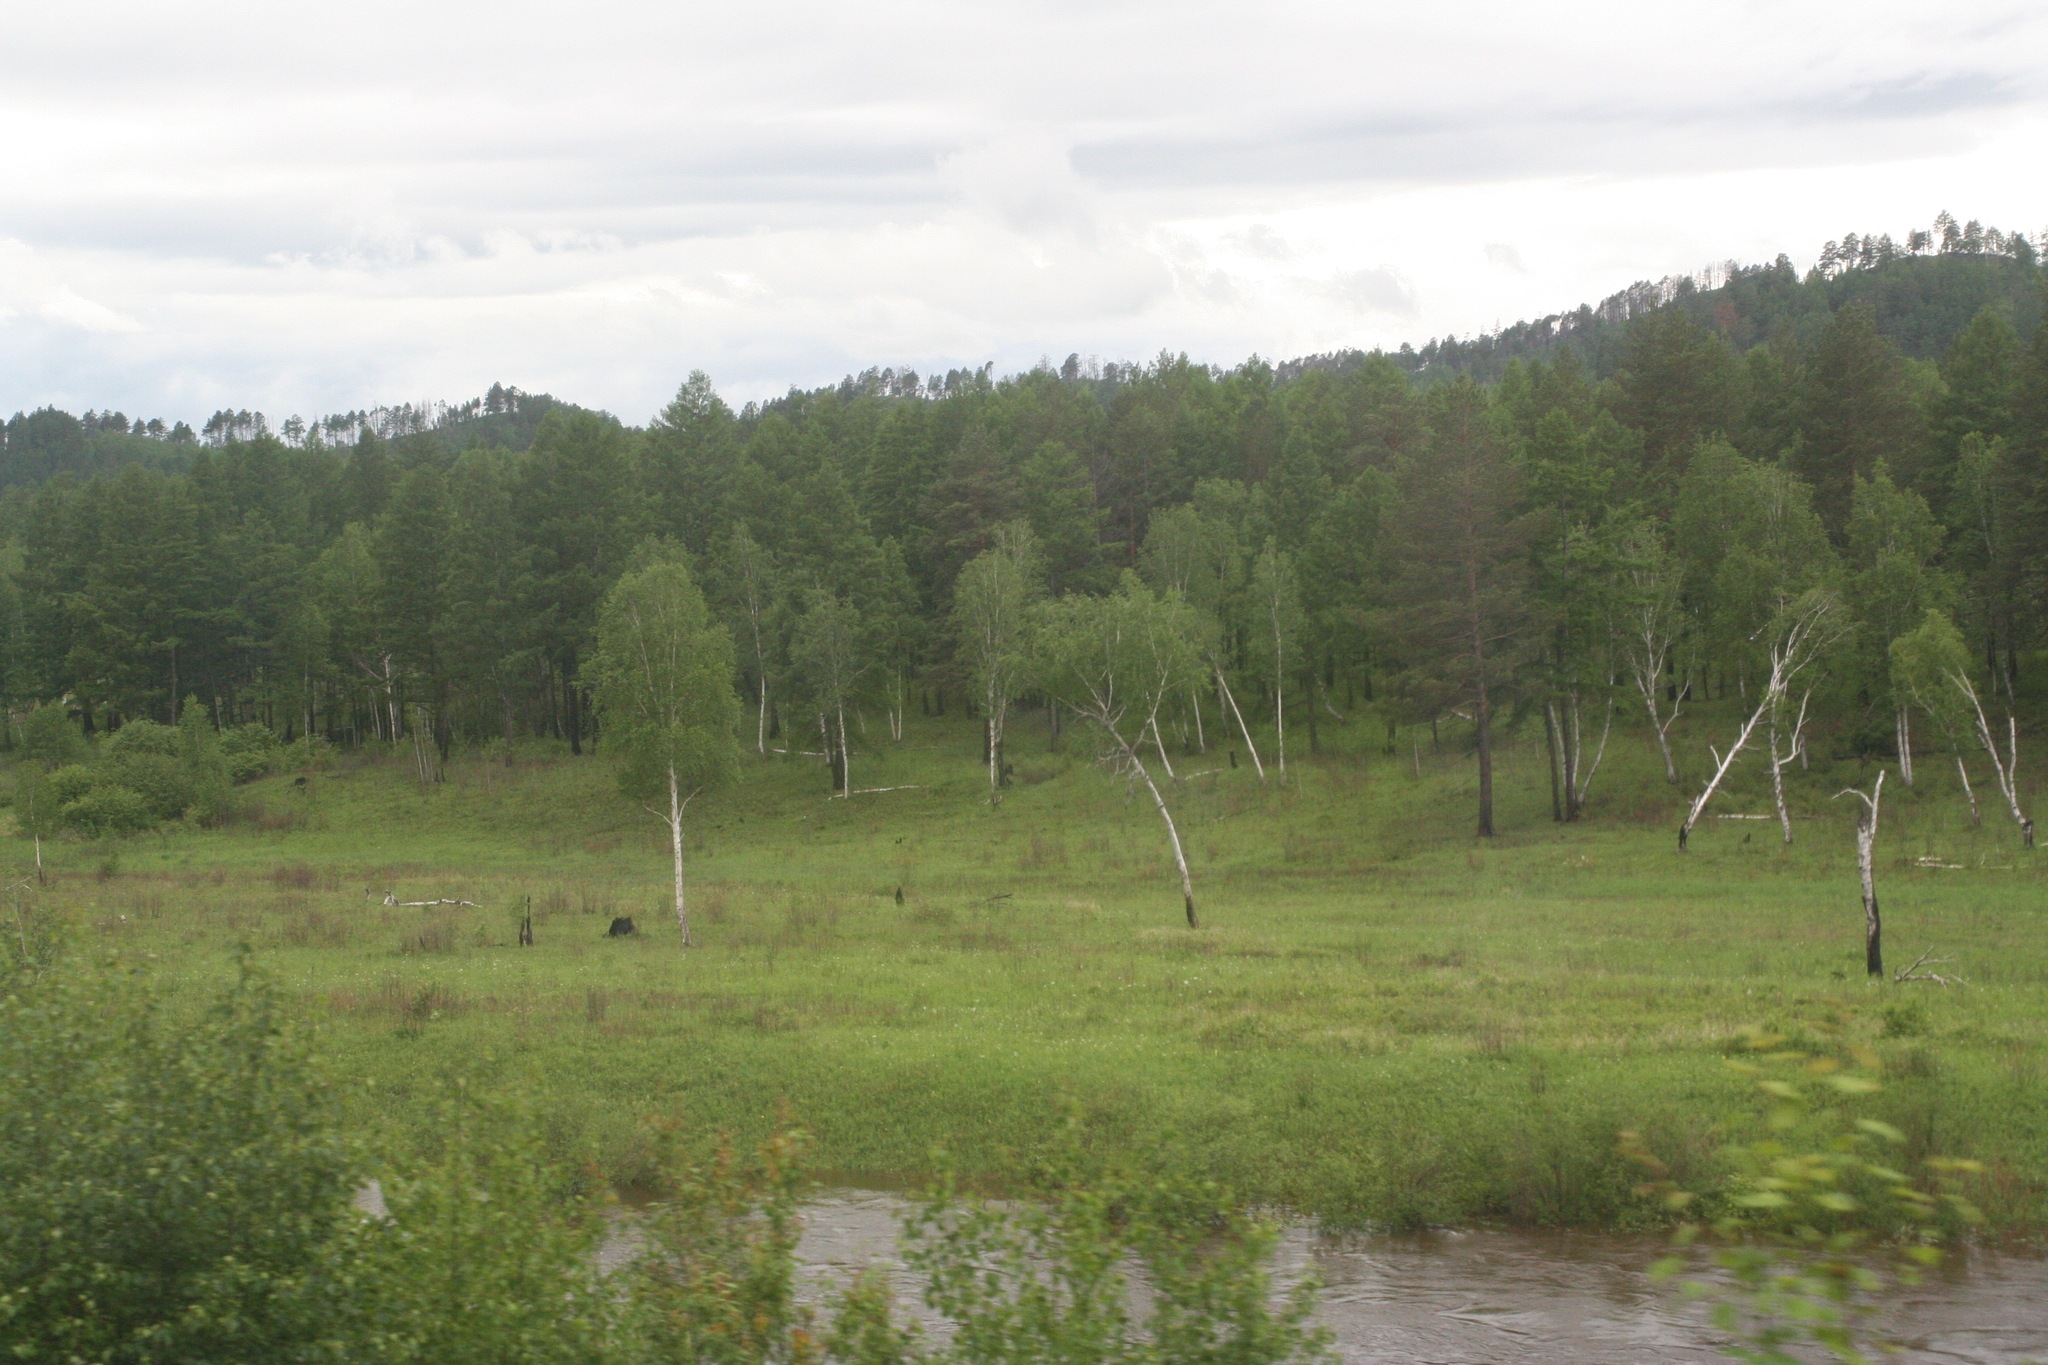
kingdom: Plantae
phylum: Tracheophyta
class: Magnoliopsida
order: Fagales
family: Betulaceae
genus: Betula
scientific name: Betula pendula
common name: Silver birch
